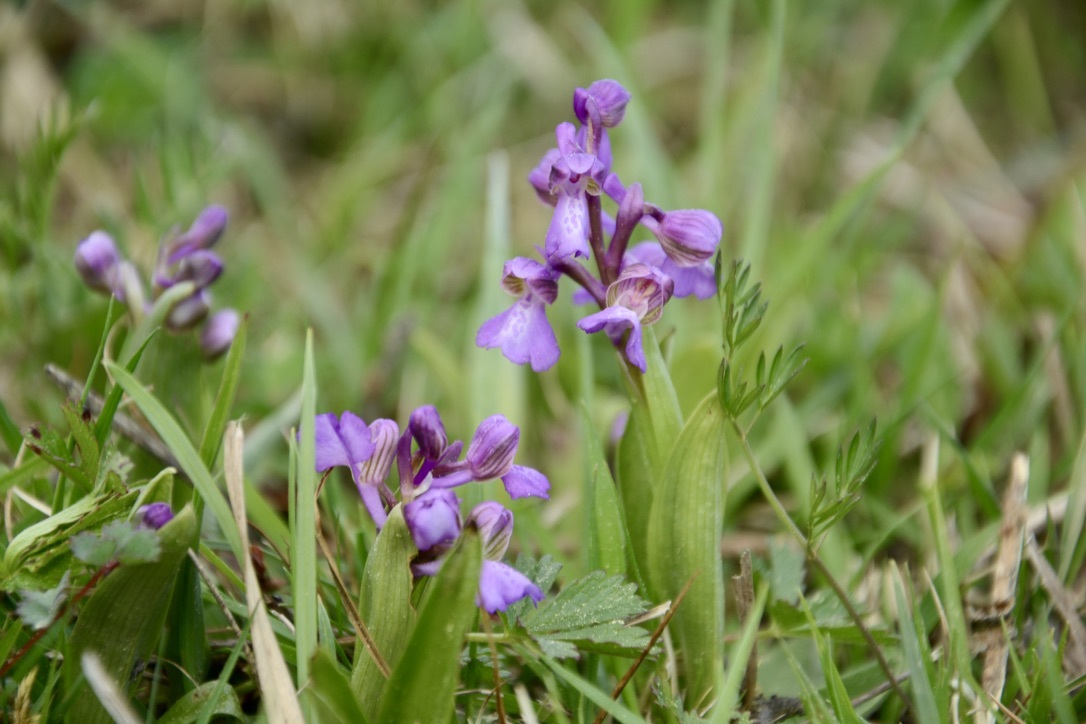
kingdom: Plantae
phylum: Tracheophyta
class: Liliopsida
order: Asparagales
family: Orchidaceae
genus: Anacamptis
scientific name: Anacamptis morio
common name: Green-winged orchid
